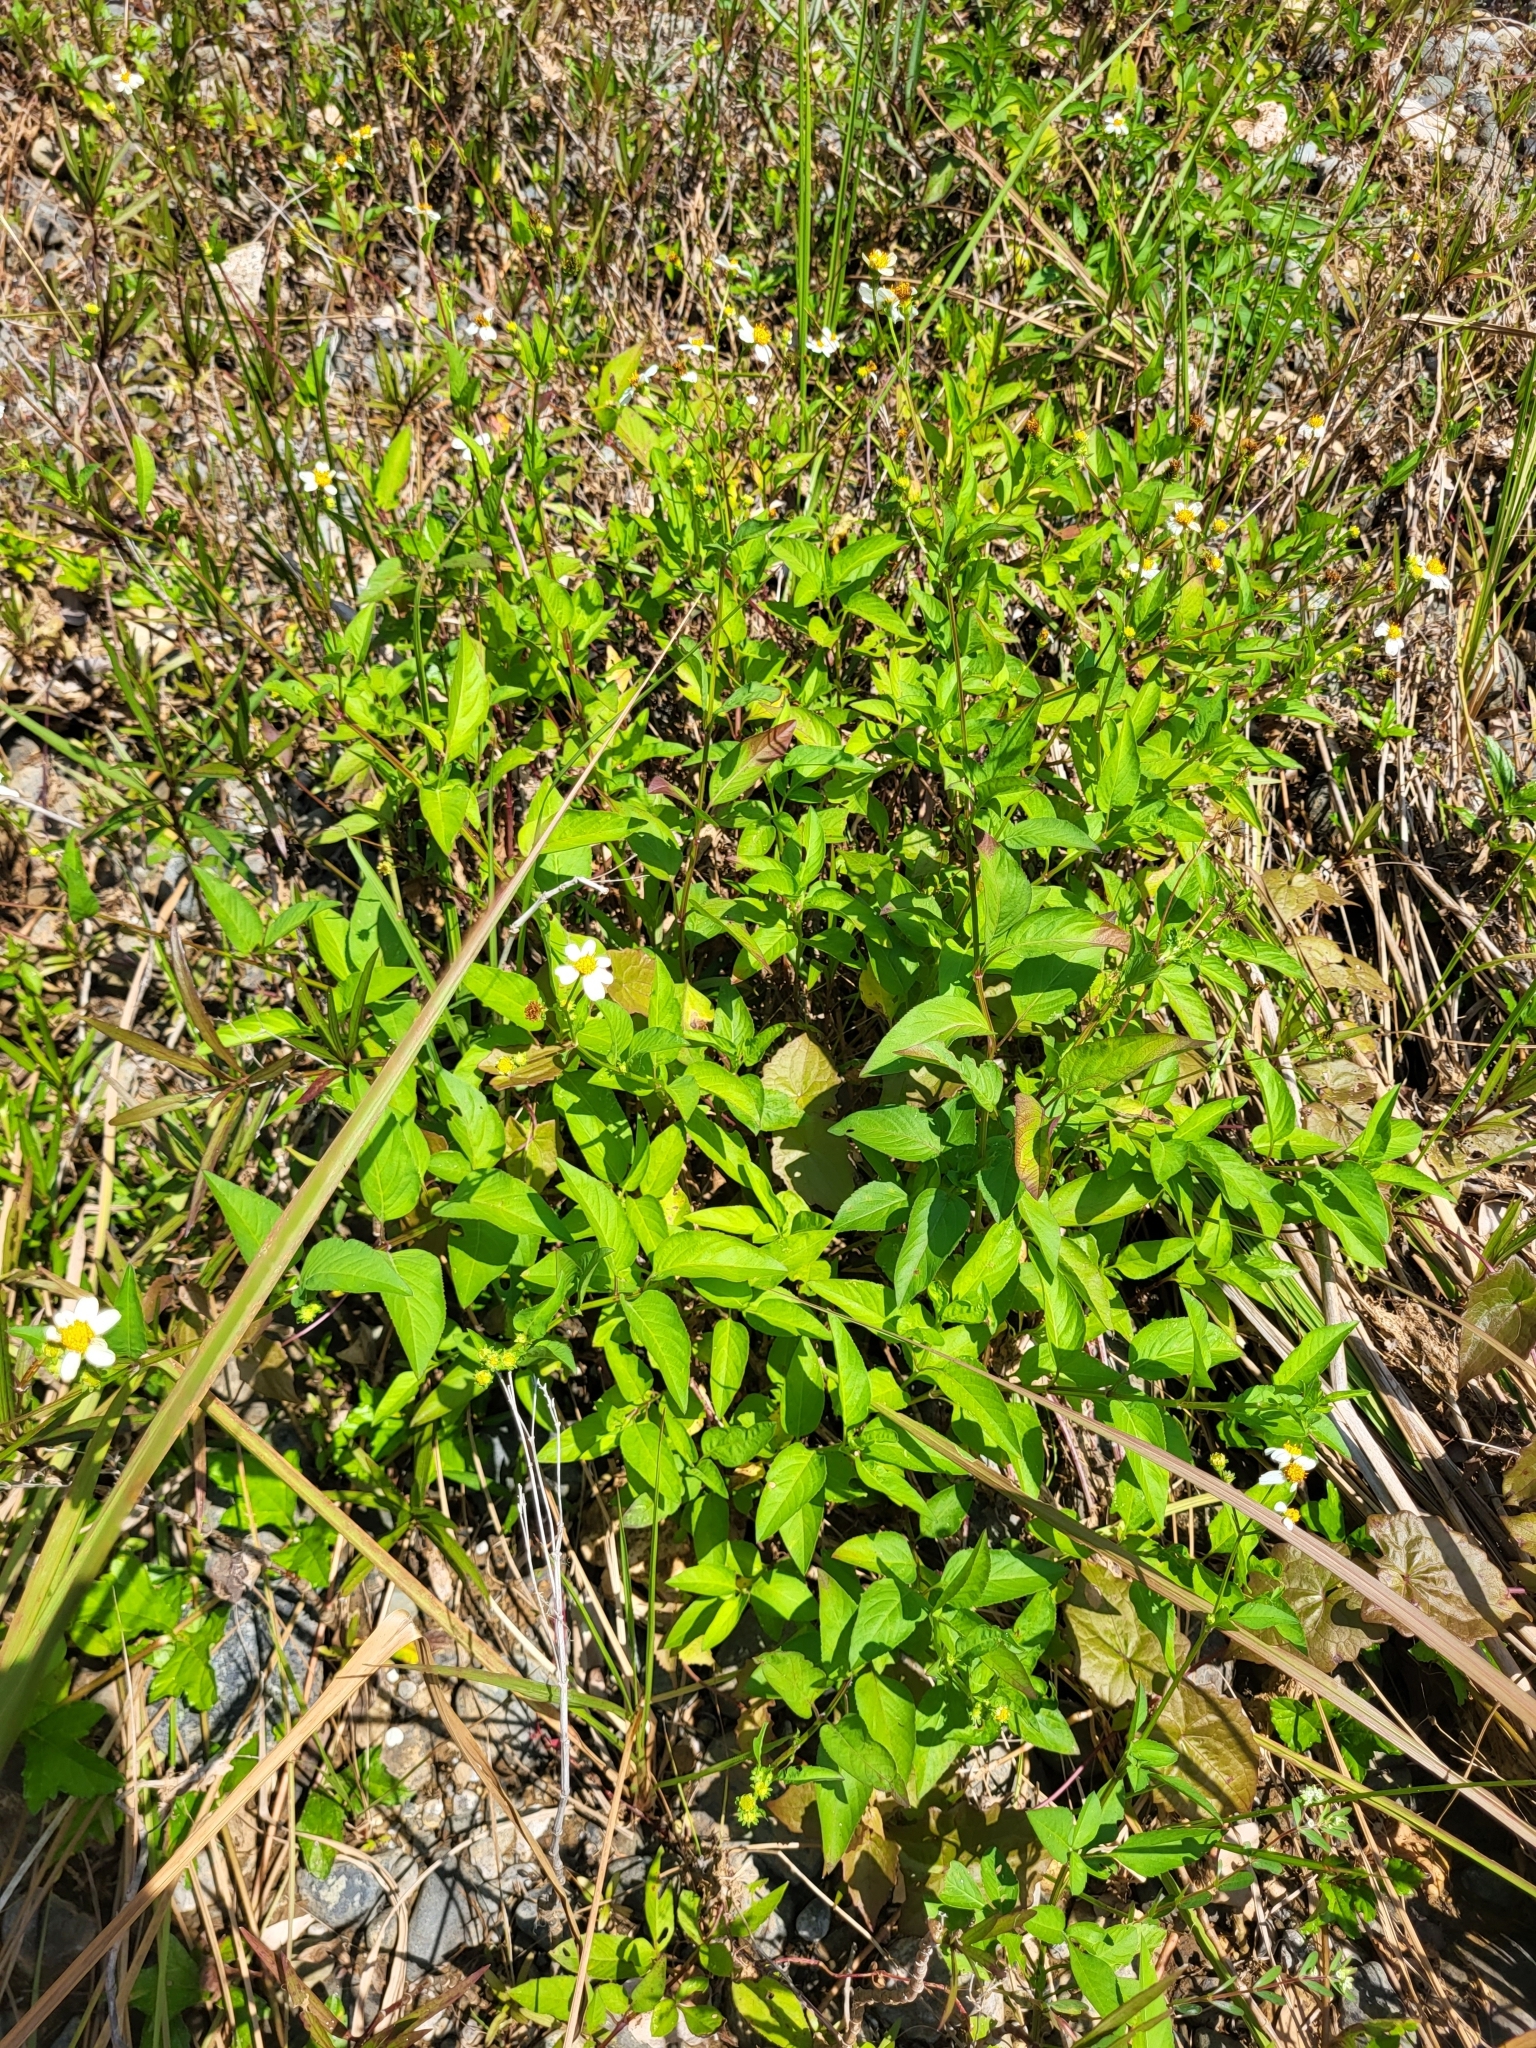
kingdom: Plantae
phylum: Tracheophyta
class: Magnoliopsida
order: Asterales
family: Asteraceae
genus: Bidens
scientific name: Bidens alba
